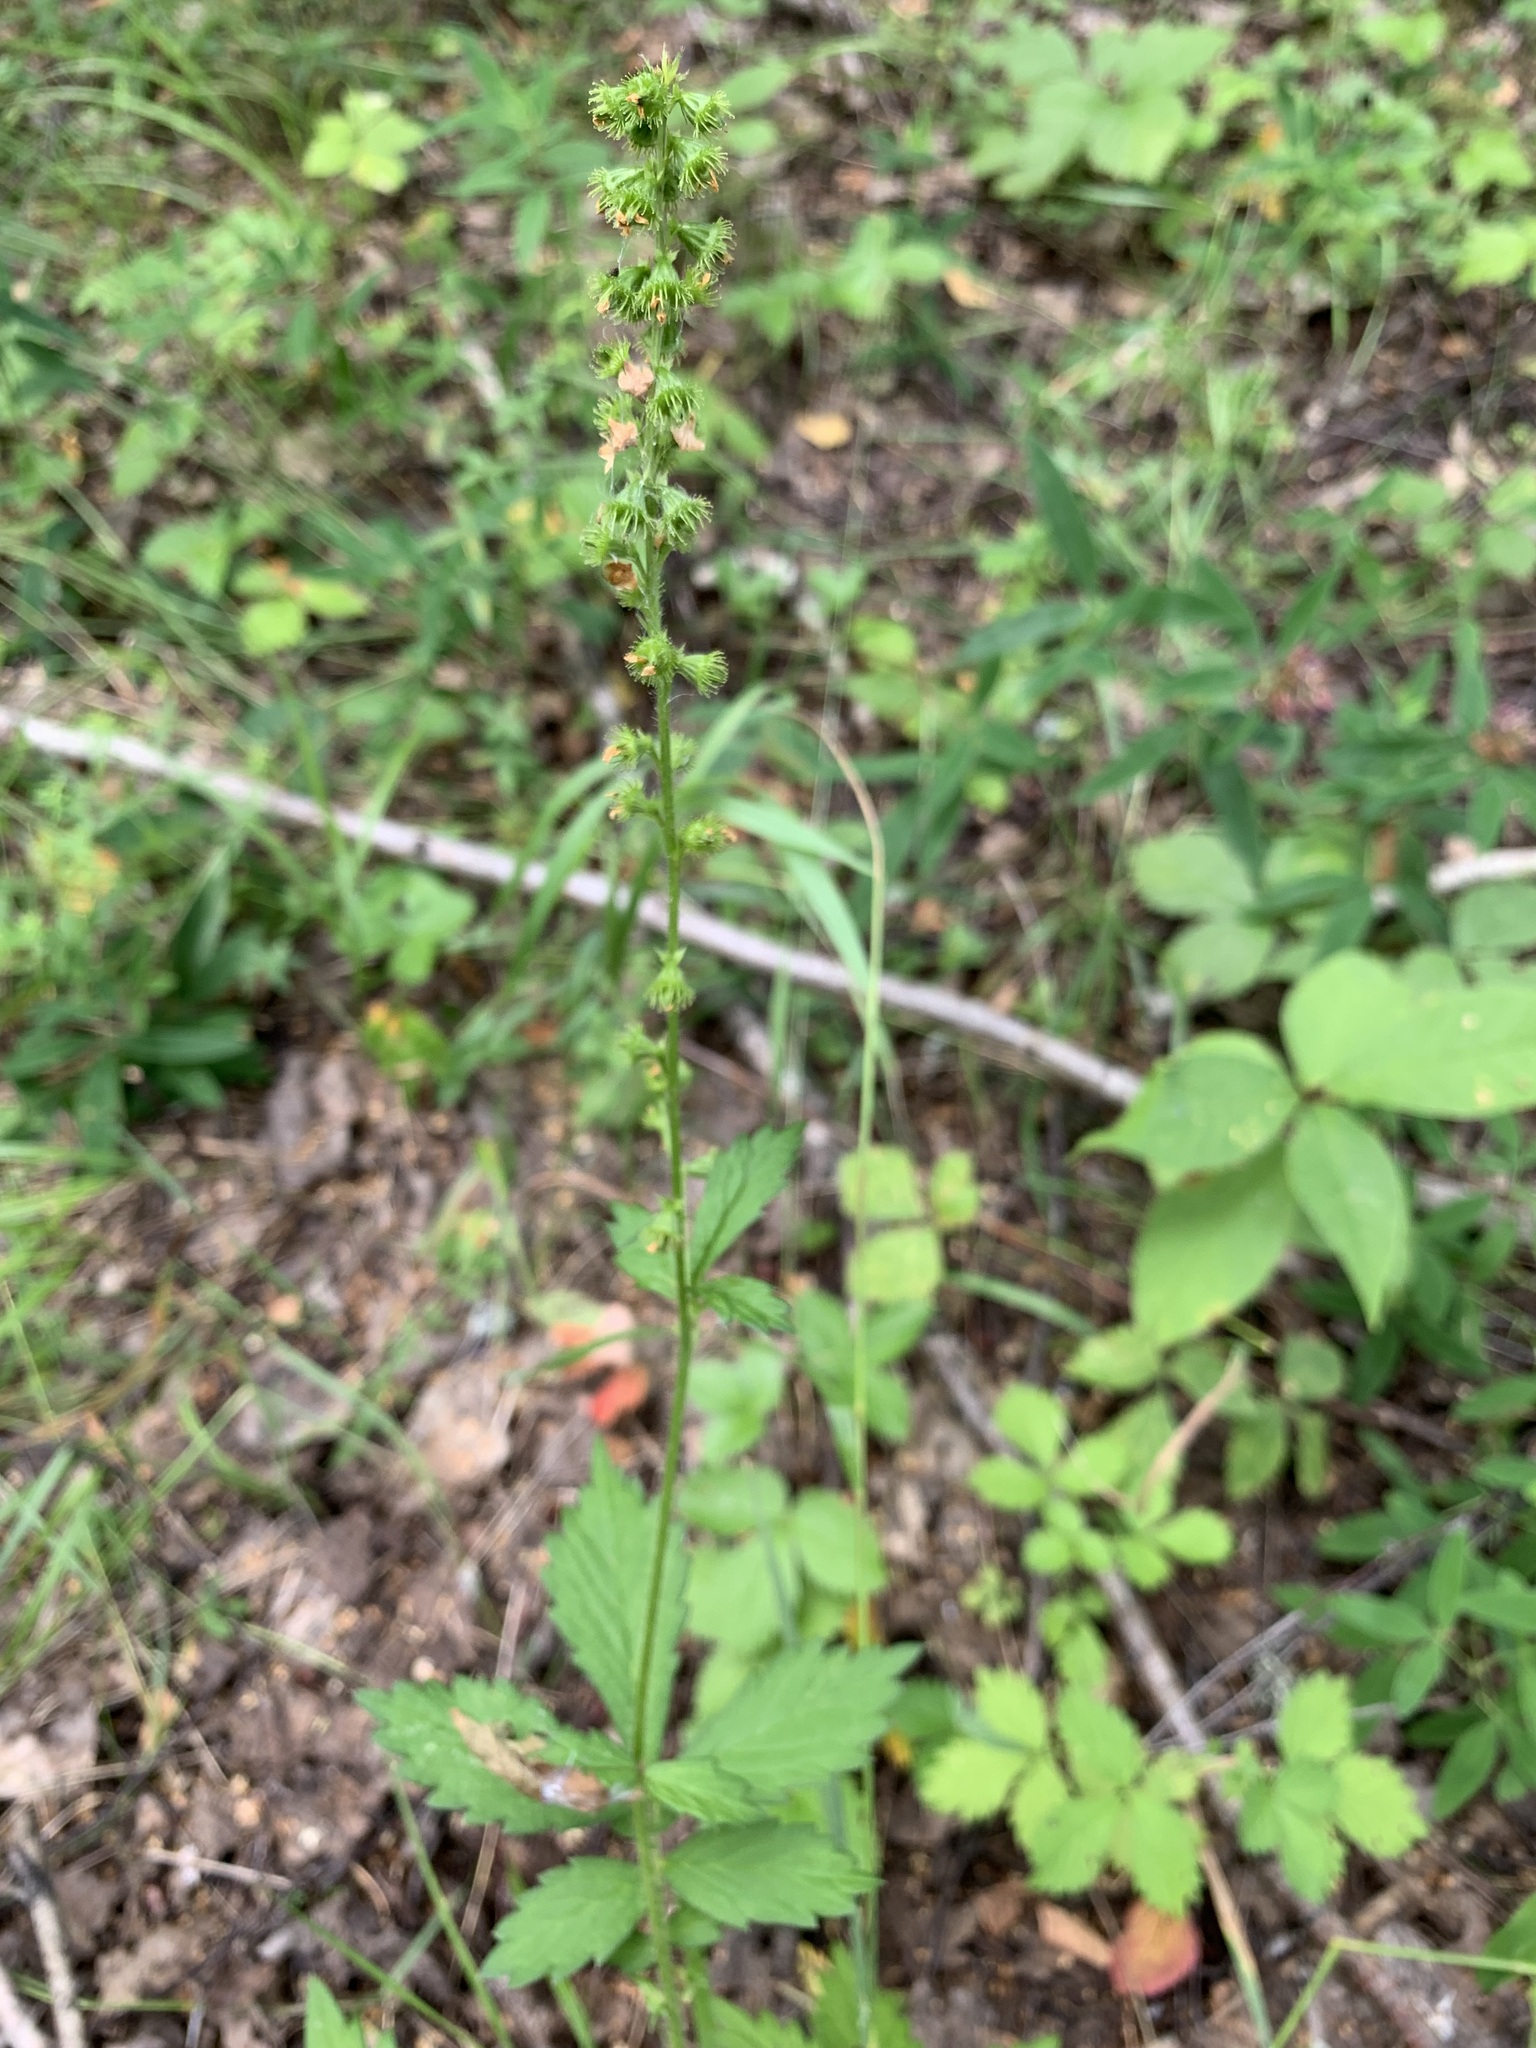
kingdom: Plantae
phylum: Tracheophyta
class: Magnoliopsida
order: Rosales
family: Rosaceae
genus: Agrimonia
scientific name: Agrimonia pilosa
